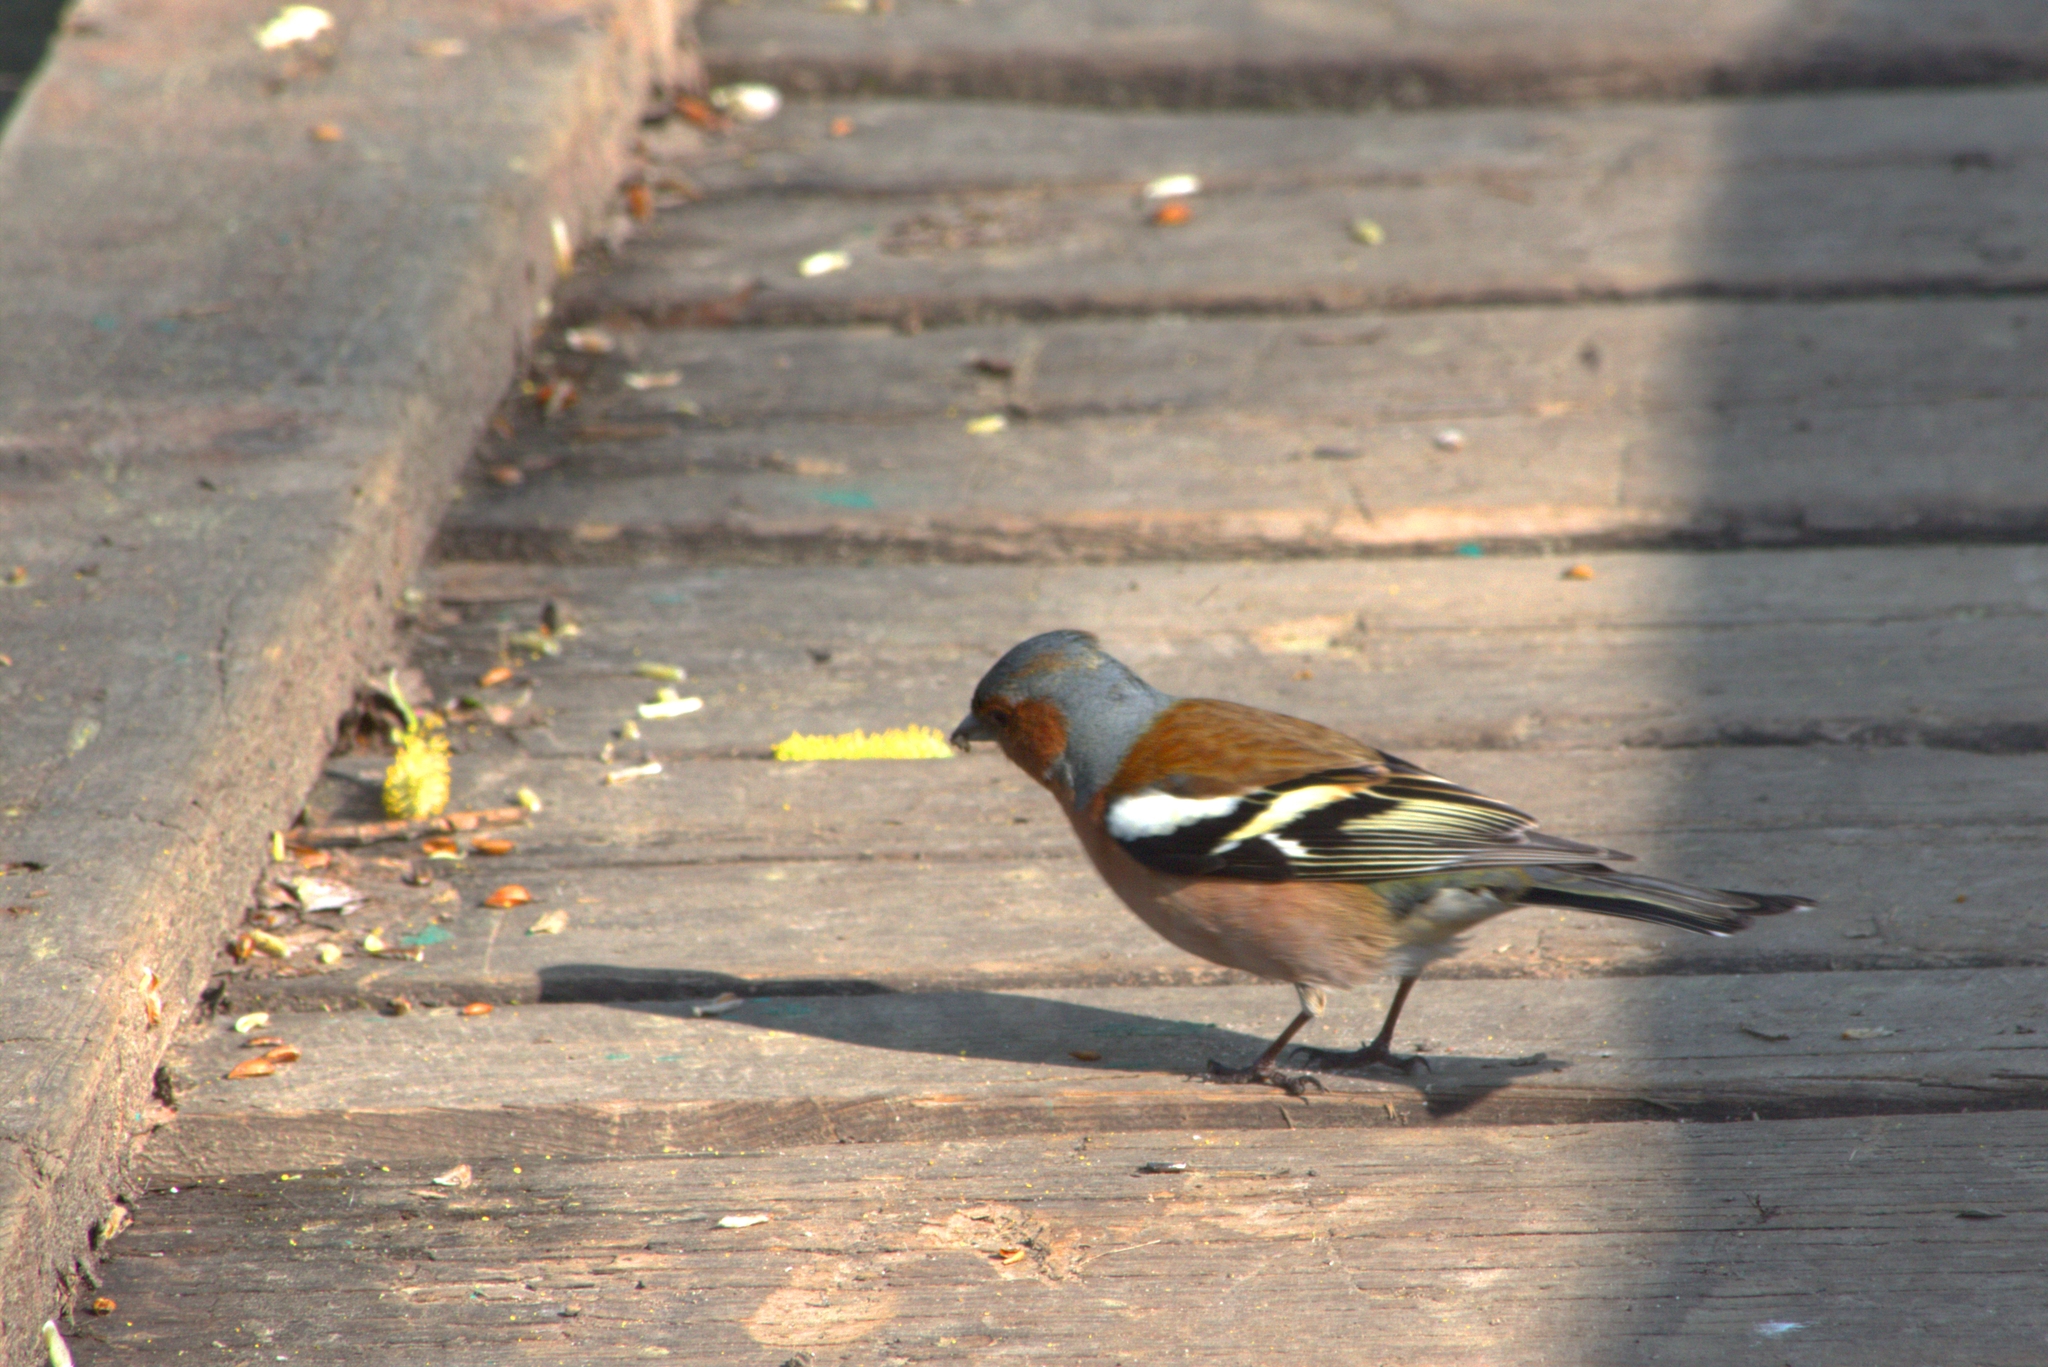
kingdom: Animalia
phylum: Chordata
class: Aves
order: Passeriformes
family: Fringillidae
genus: Fringilla
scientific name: Fringilla coelebs
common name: Common chaffinch
